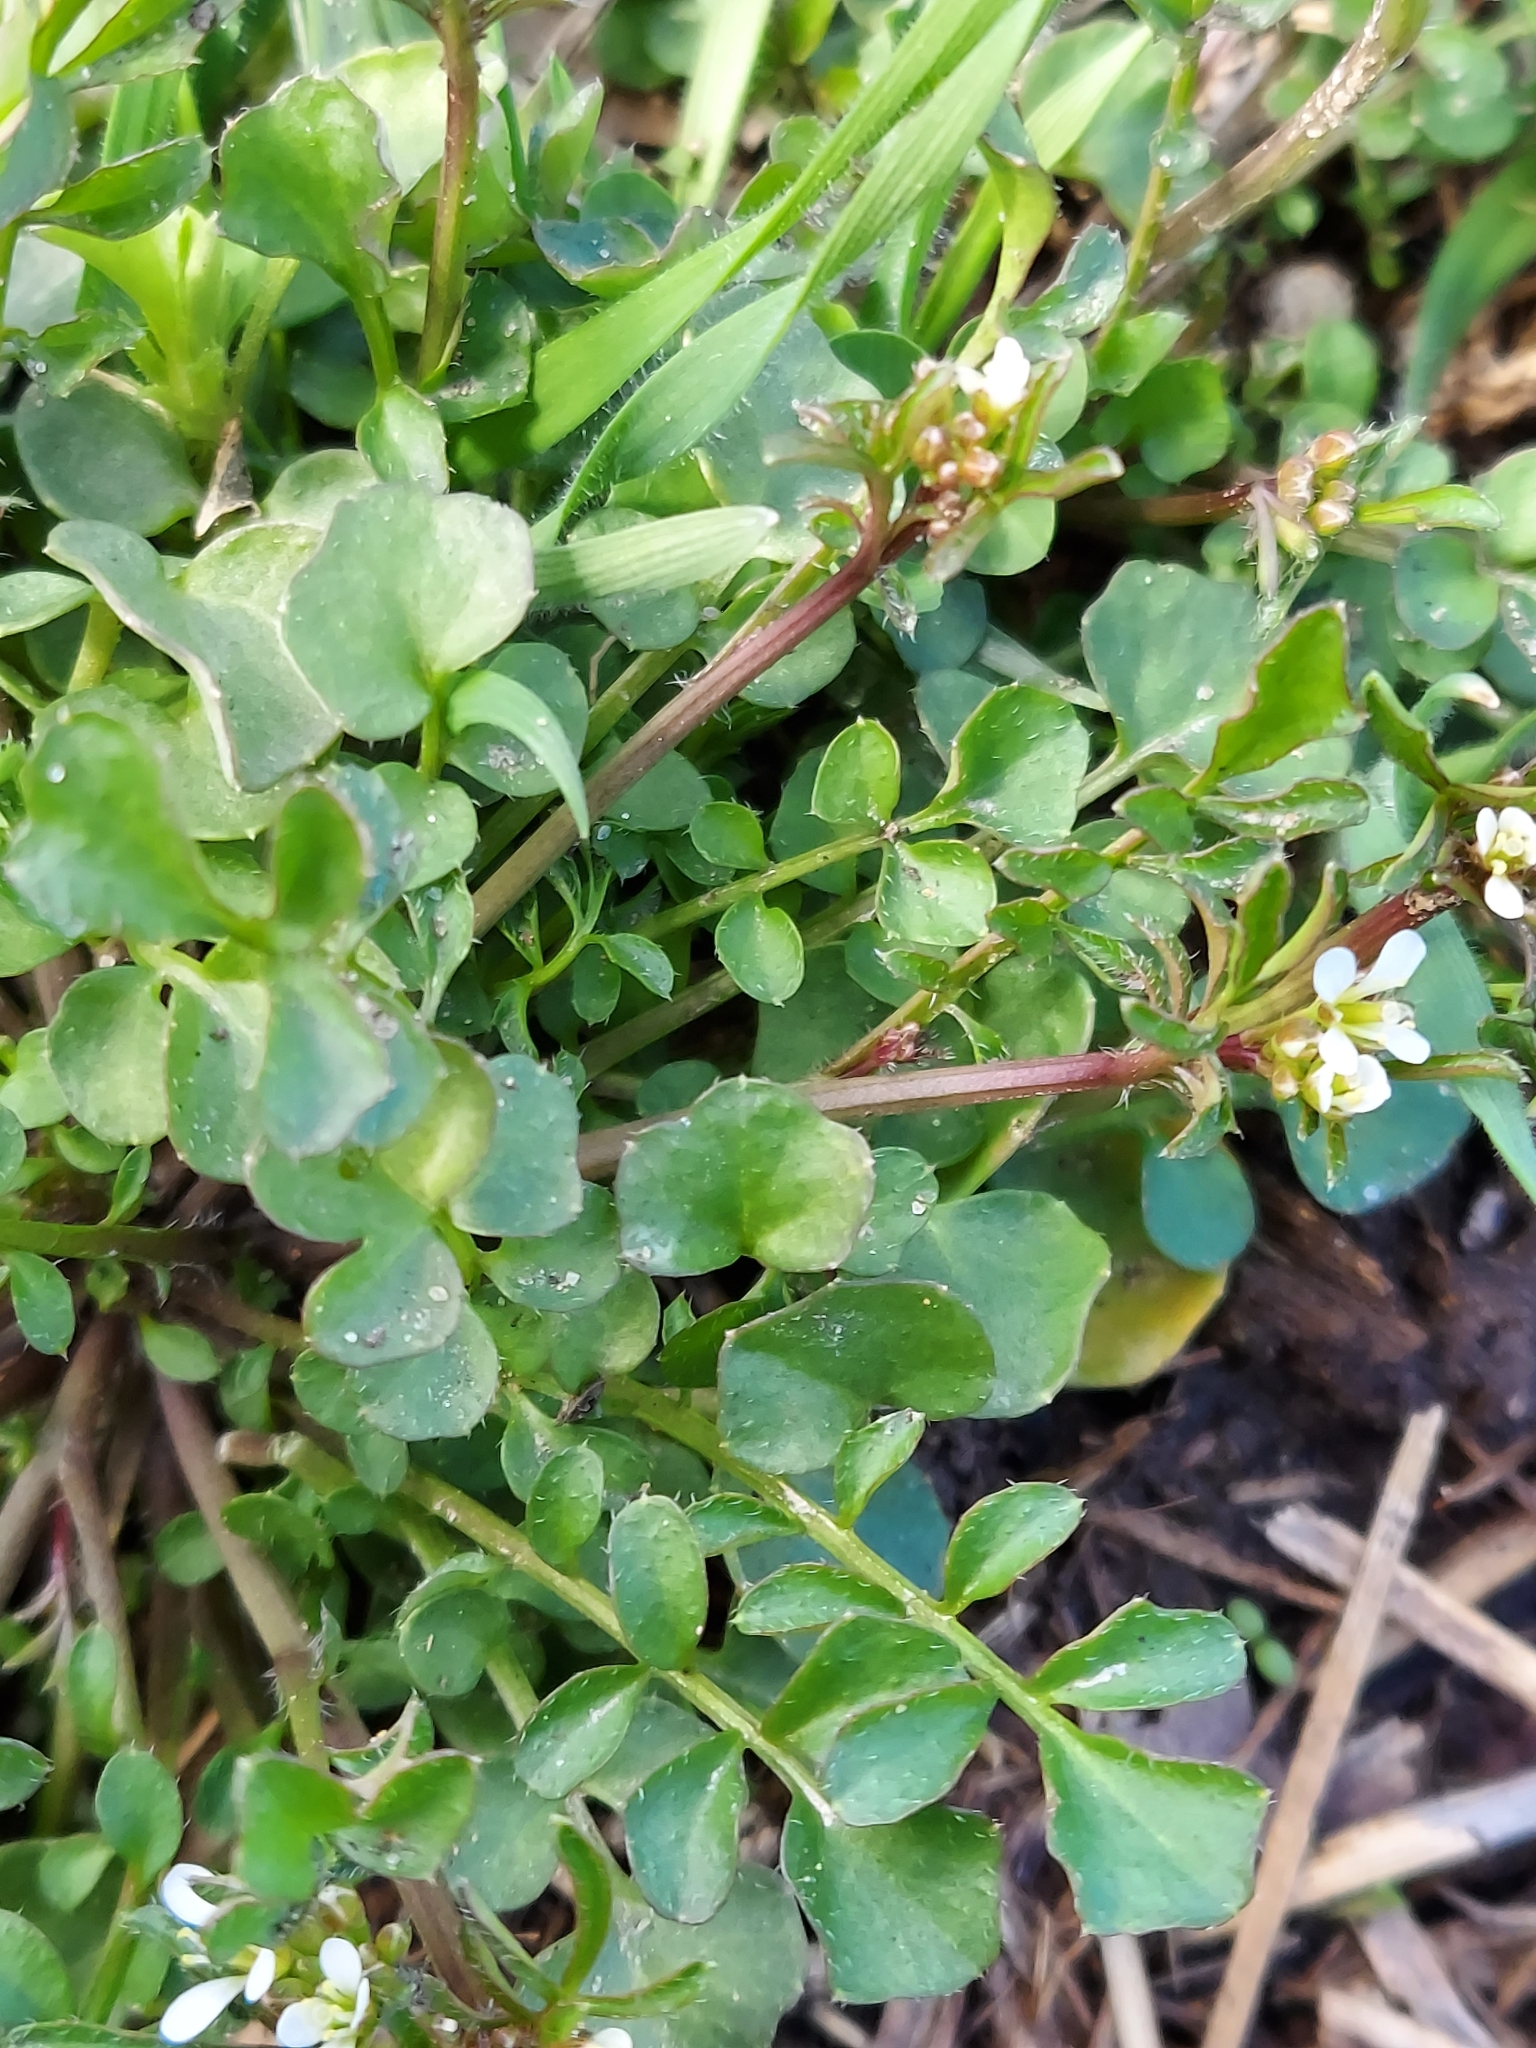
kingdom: Plantae
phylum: Tracheophyta
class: Magnoliopsida
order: Brassicales
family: Brassicaceae
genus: Cardamine
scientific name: Cardamine hirsuta
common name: Hairy bittercress
